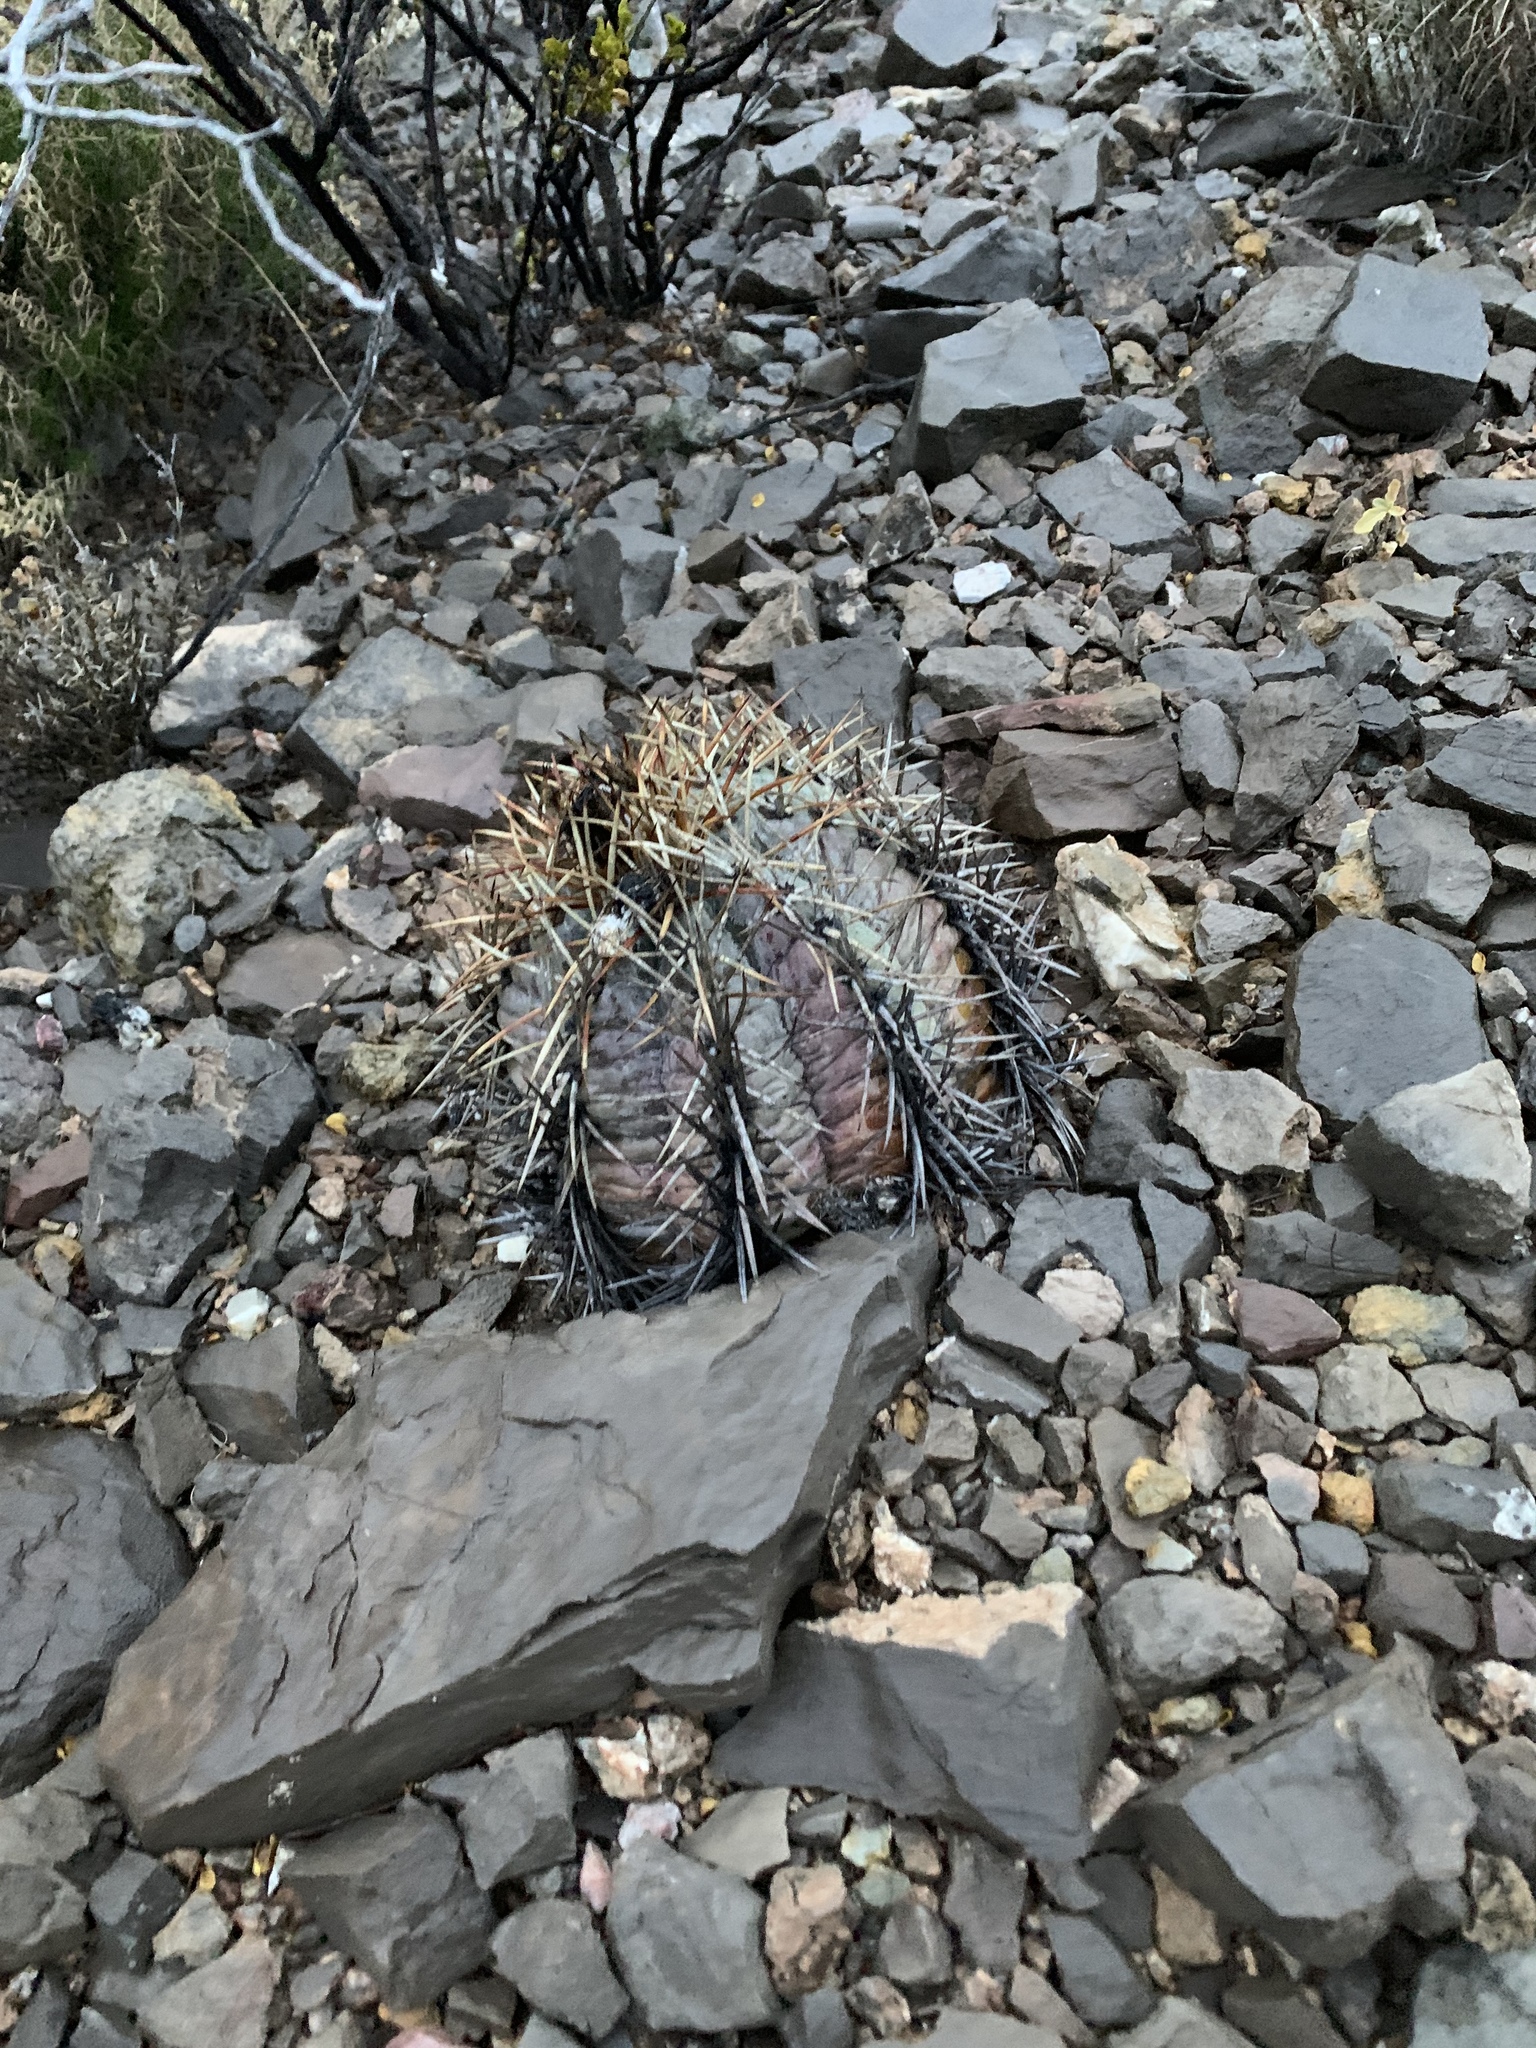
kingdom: Plantae
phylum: Tracheophyta
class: Magnoliopsida
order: Caryophyllales
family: Cactaceae
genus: Echinocactus
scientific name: Echinocactus horizonthalonius
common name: Devilshead
